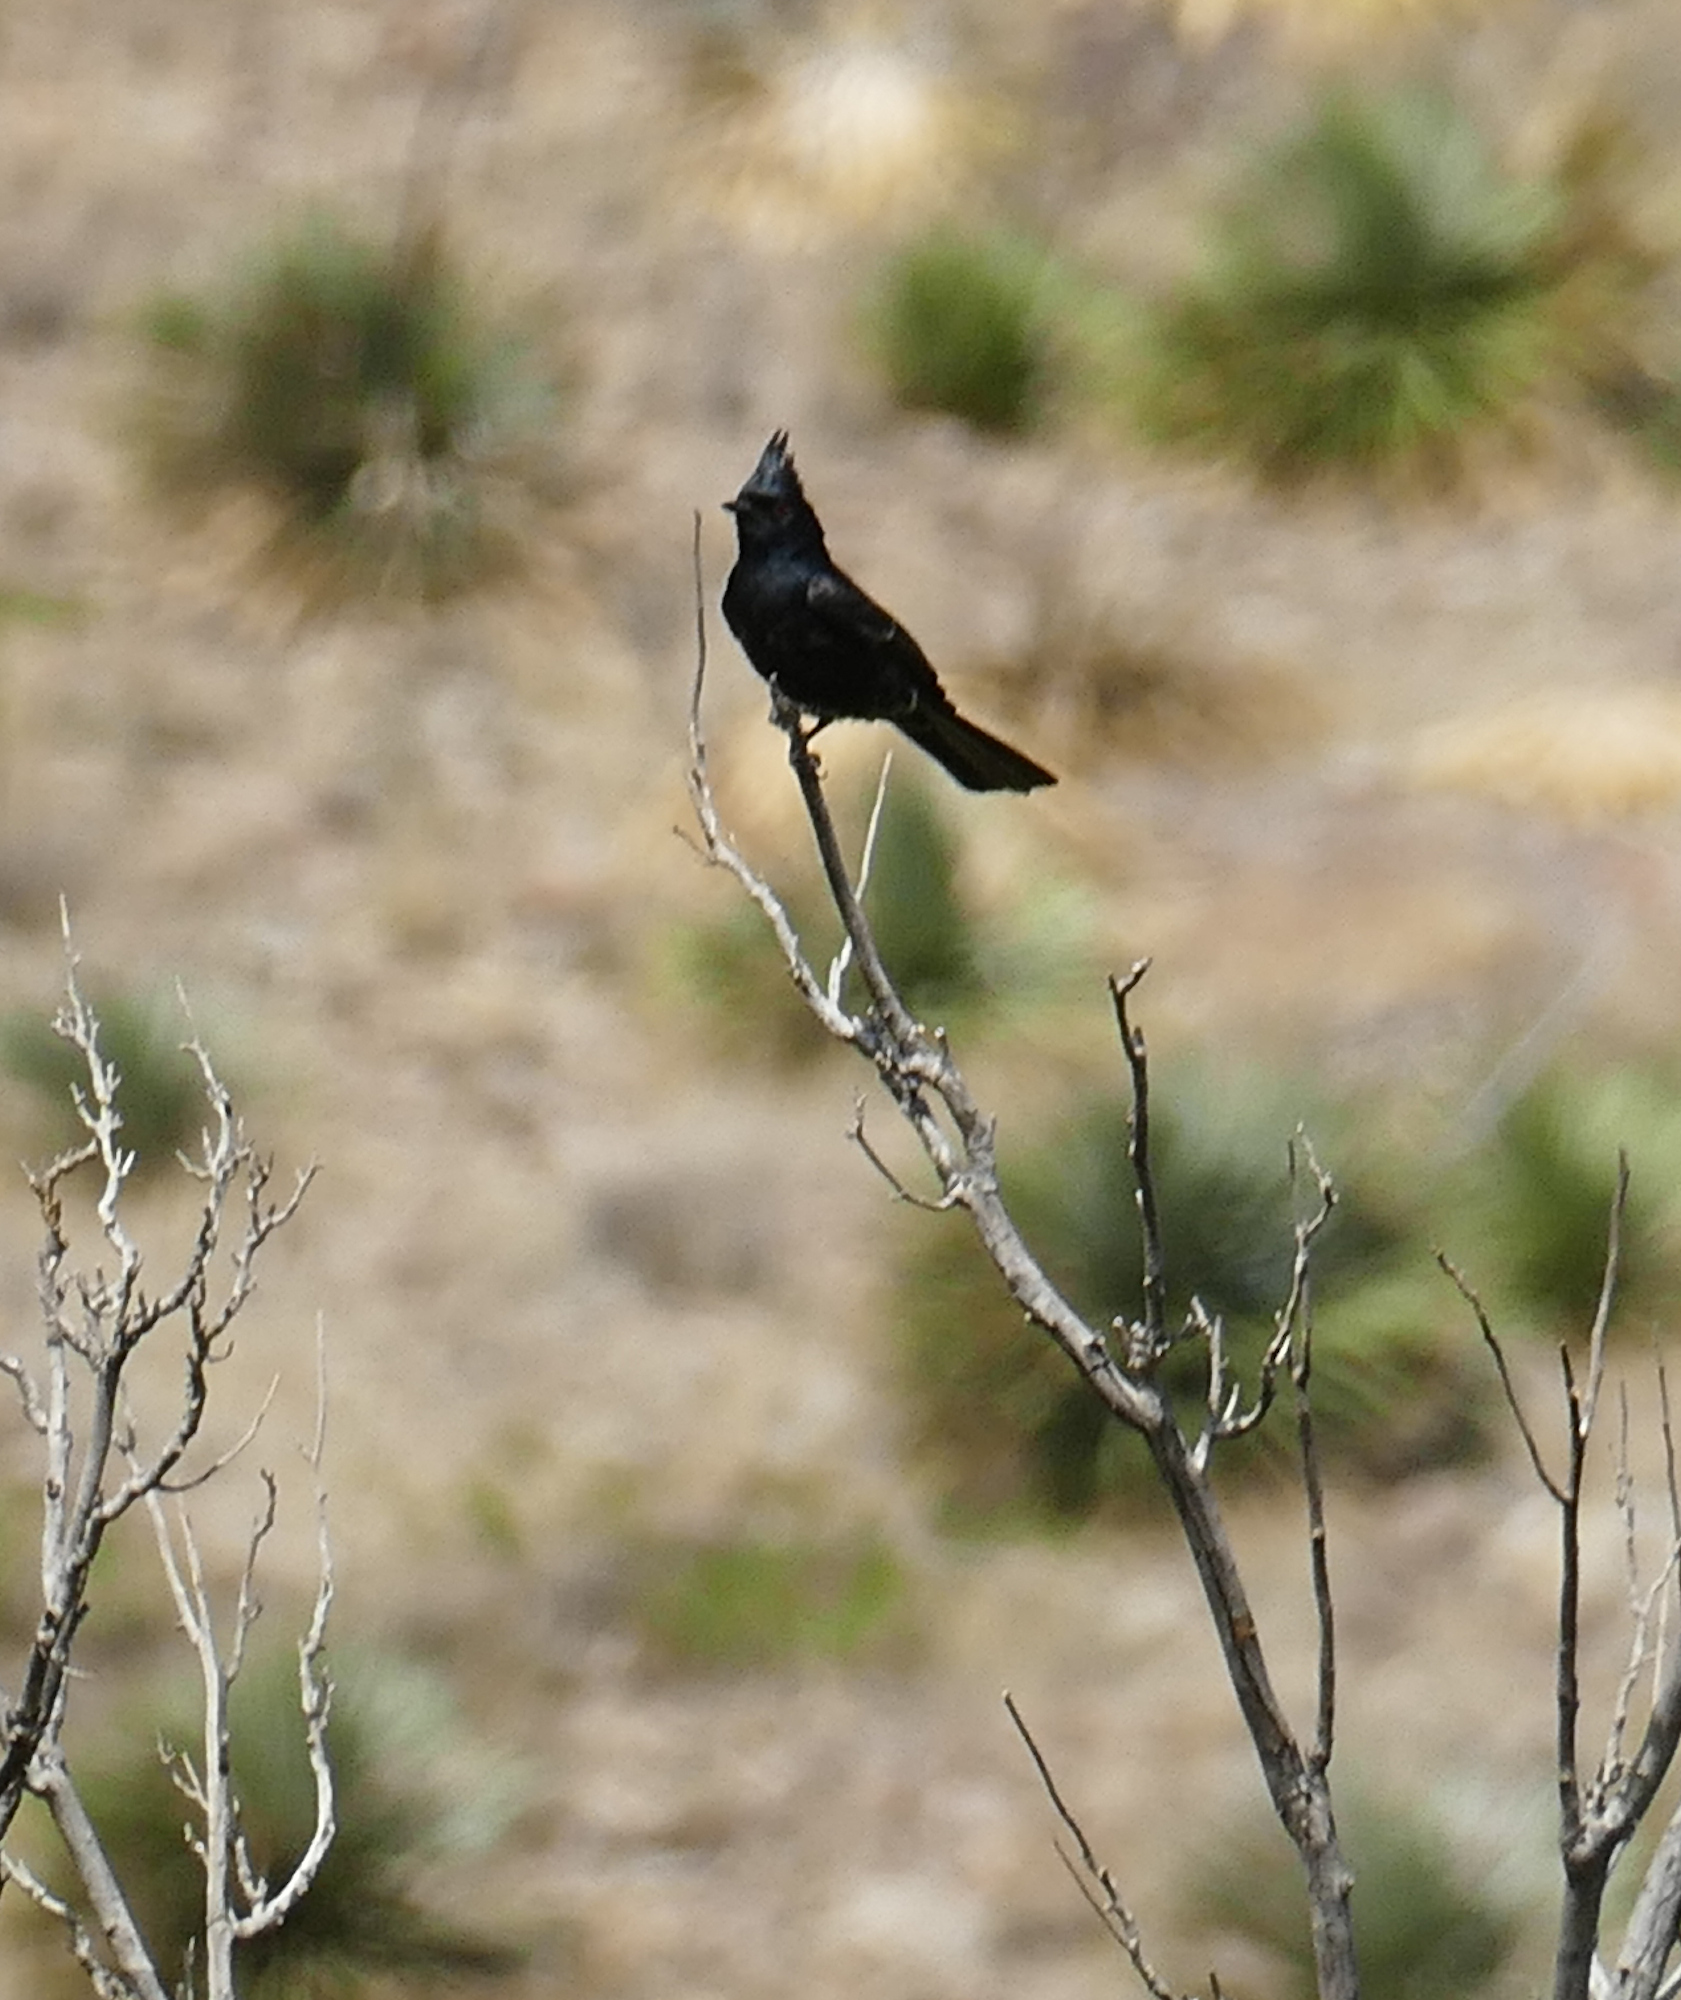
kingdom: Animalia
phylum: Chordata
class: Aves
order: Passeriformes
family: Ptilogonatidae
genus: Phainopepla
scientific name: Phainopepla nitens
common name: Phainopepla
